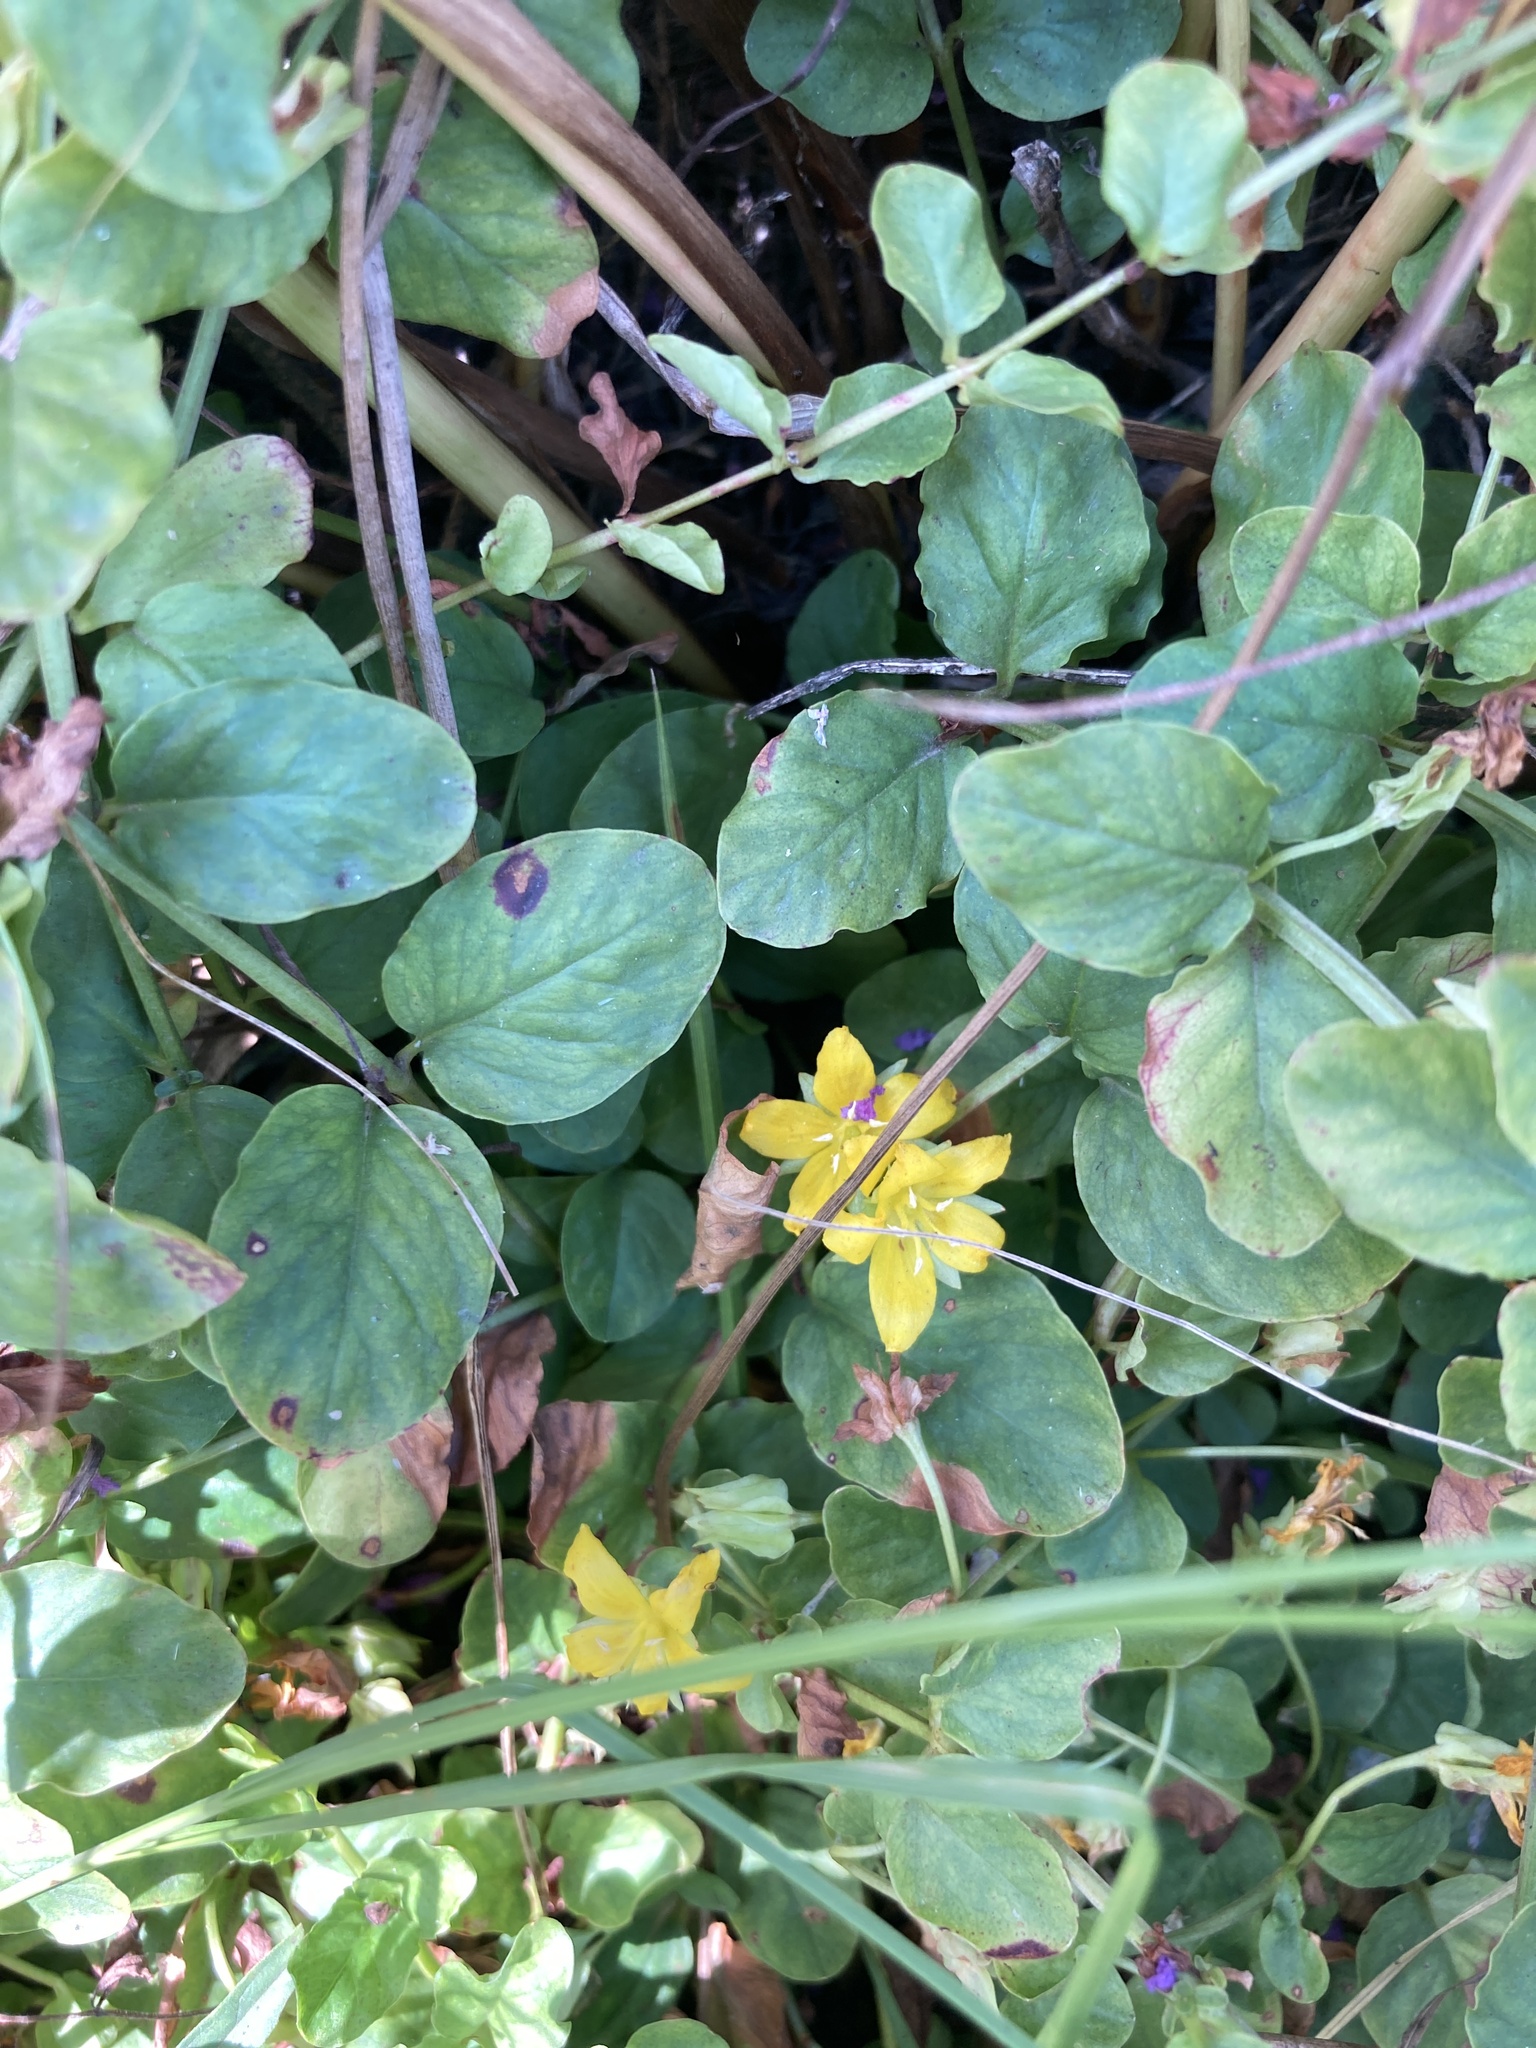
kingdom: Plantae
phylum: Tracheophyta
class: Magnoliopsida
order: Ericales
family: Primulaceae
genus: Lysimachia
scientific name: Lysimachia nummularia
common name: Moneywort
